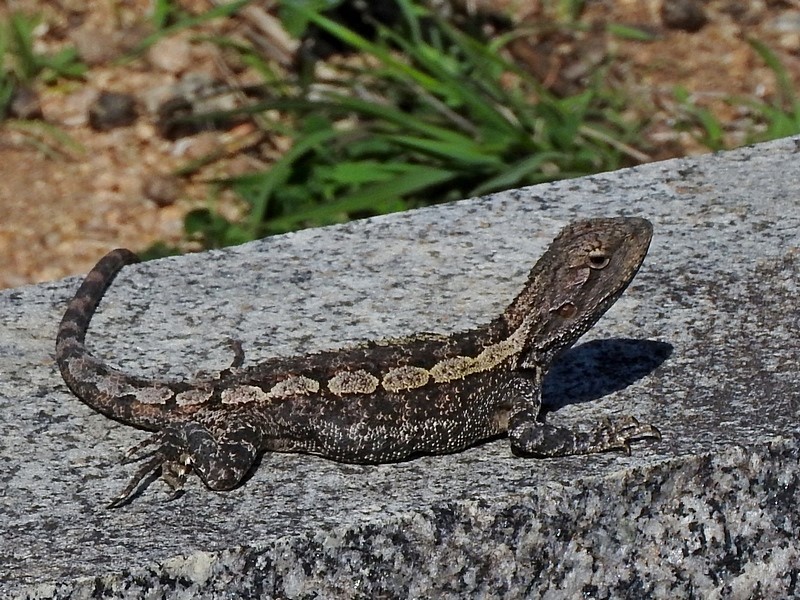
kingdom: Animalia
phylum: Chordata
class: Squamata
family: Agamidae
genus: Amphibolurus
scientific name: Amphibolurus muricatus
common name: Jacky lizard
